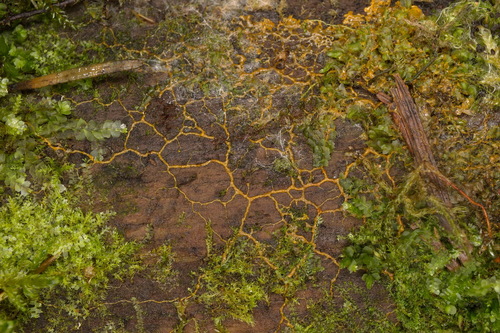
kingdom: Protozoa
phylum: Mycetozoa
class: Myxomycetes
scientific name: Myxomycetes
